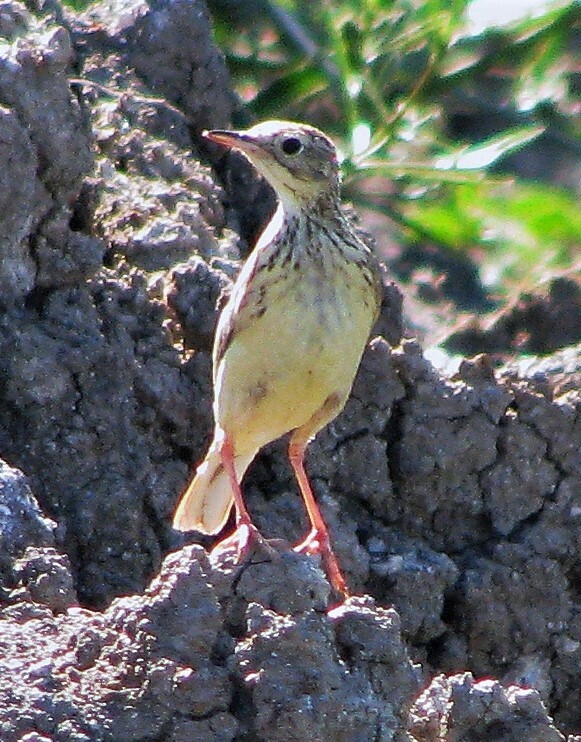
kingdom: Animalia
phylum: Chordata
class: Aves
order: Passeriformes
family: Motacillidae
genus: Anthus
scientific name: Anthus chii
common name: Yellowish pipit
